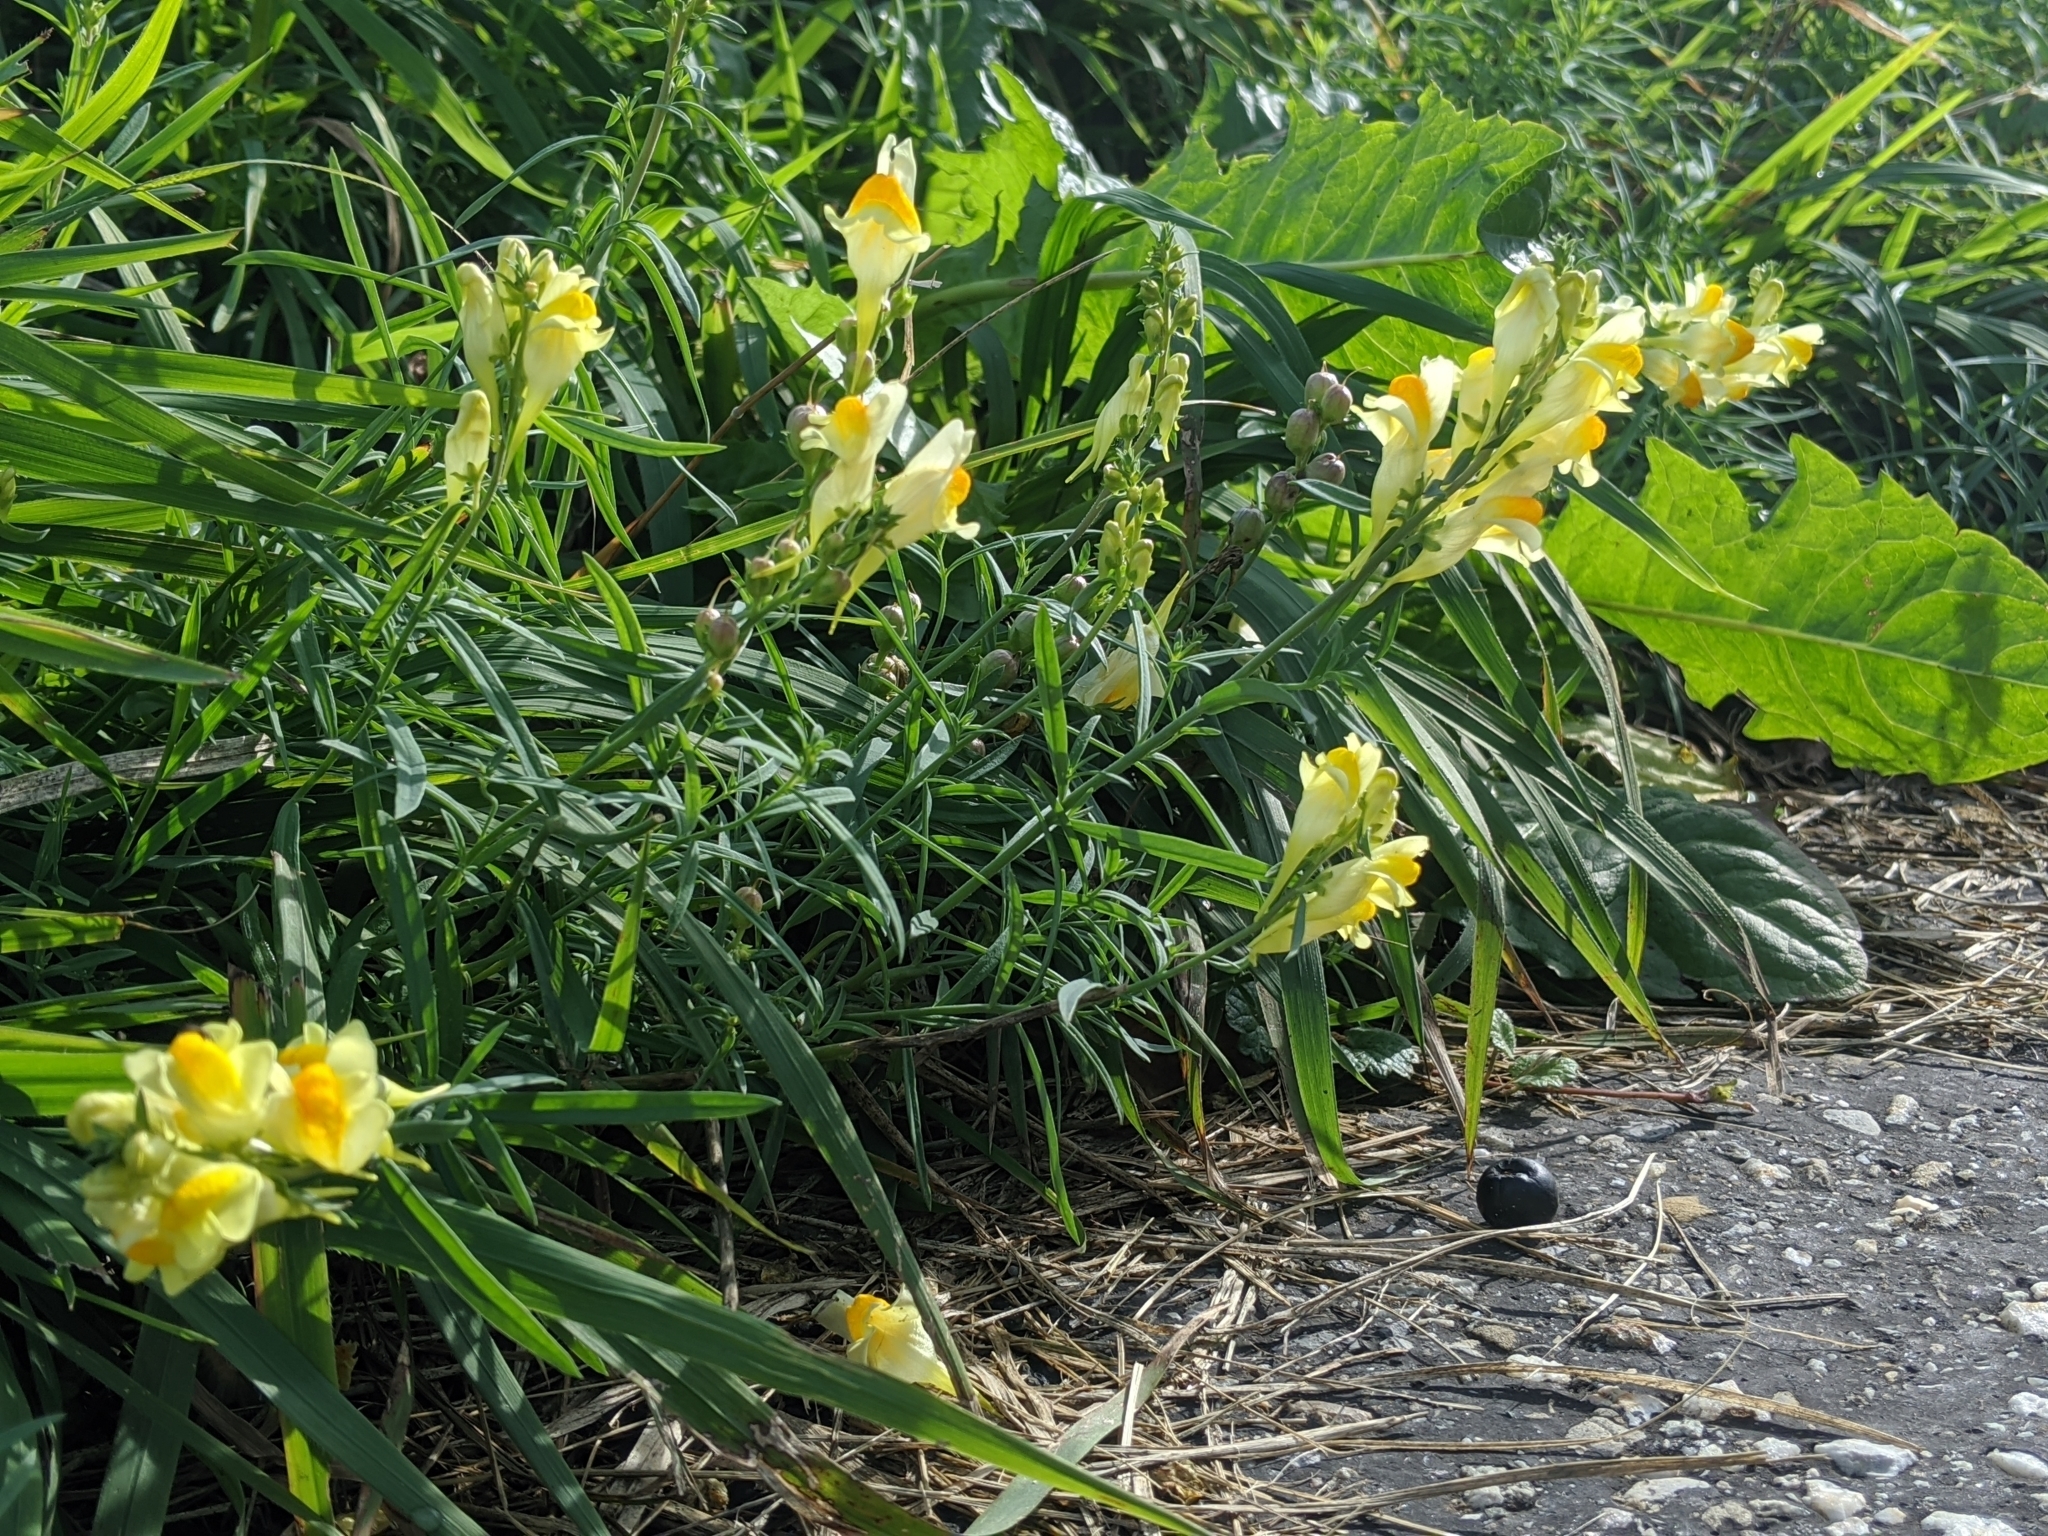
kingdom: Plantae
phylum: Tracheophyta
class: Magnoliopsida
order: Lamiales
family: Plantaginaceae
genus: Linaria
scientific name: Linaria vulgaris
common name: Butter and eggs
